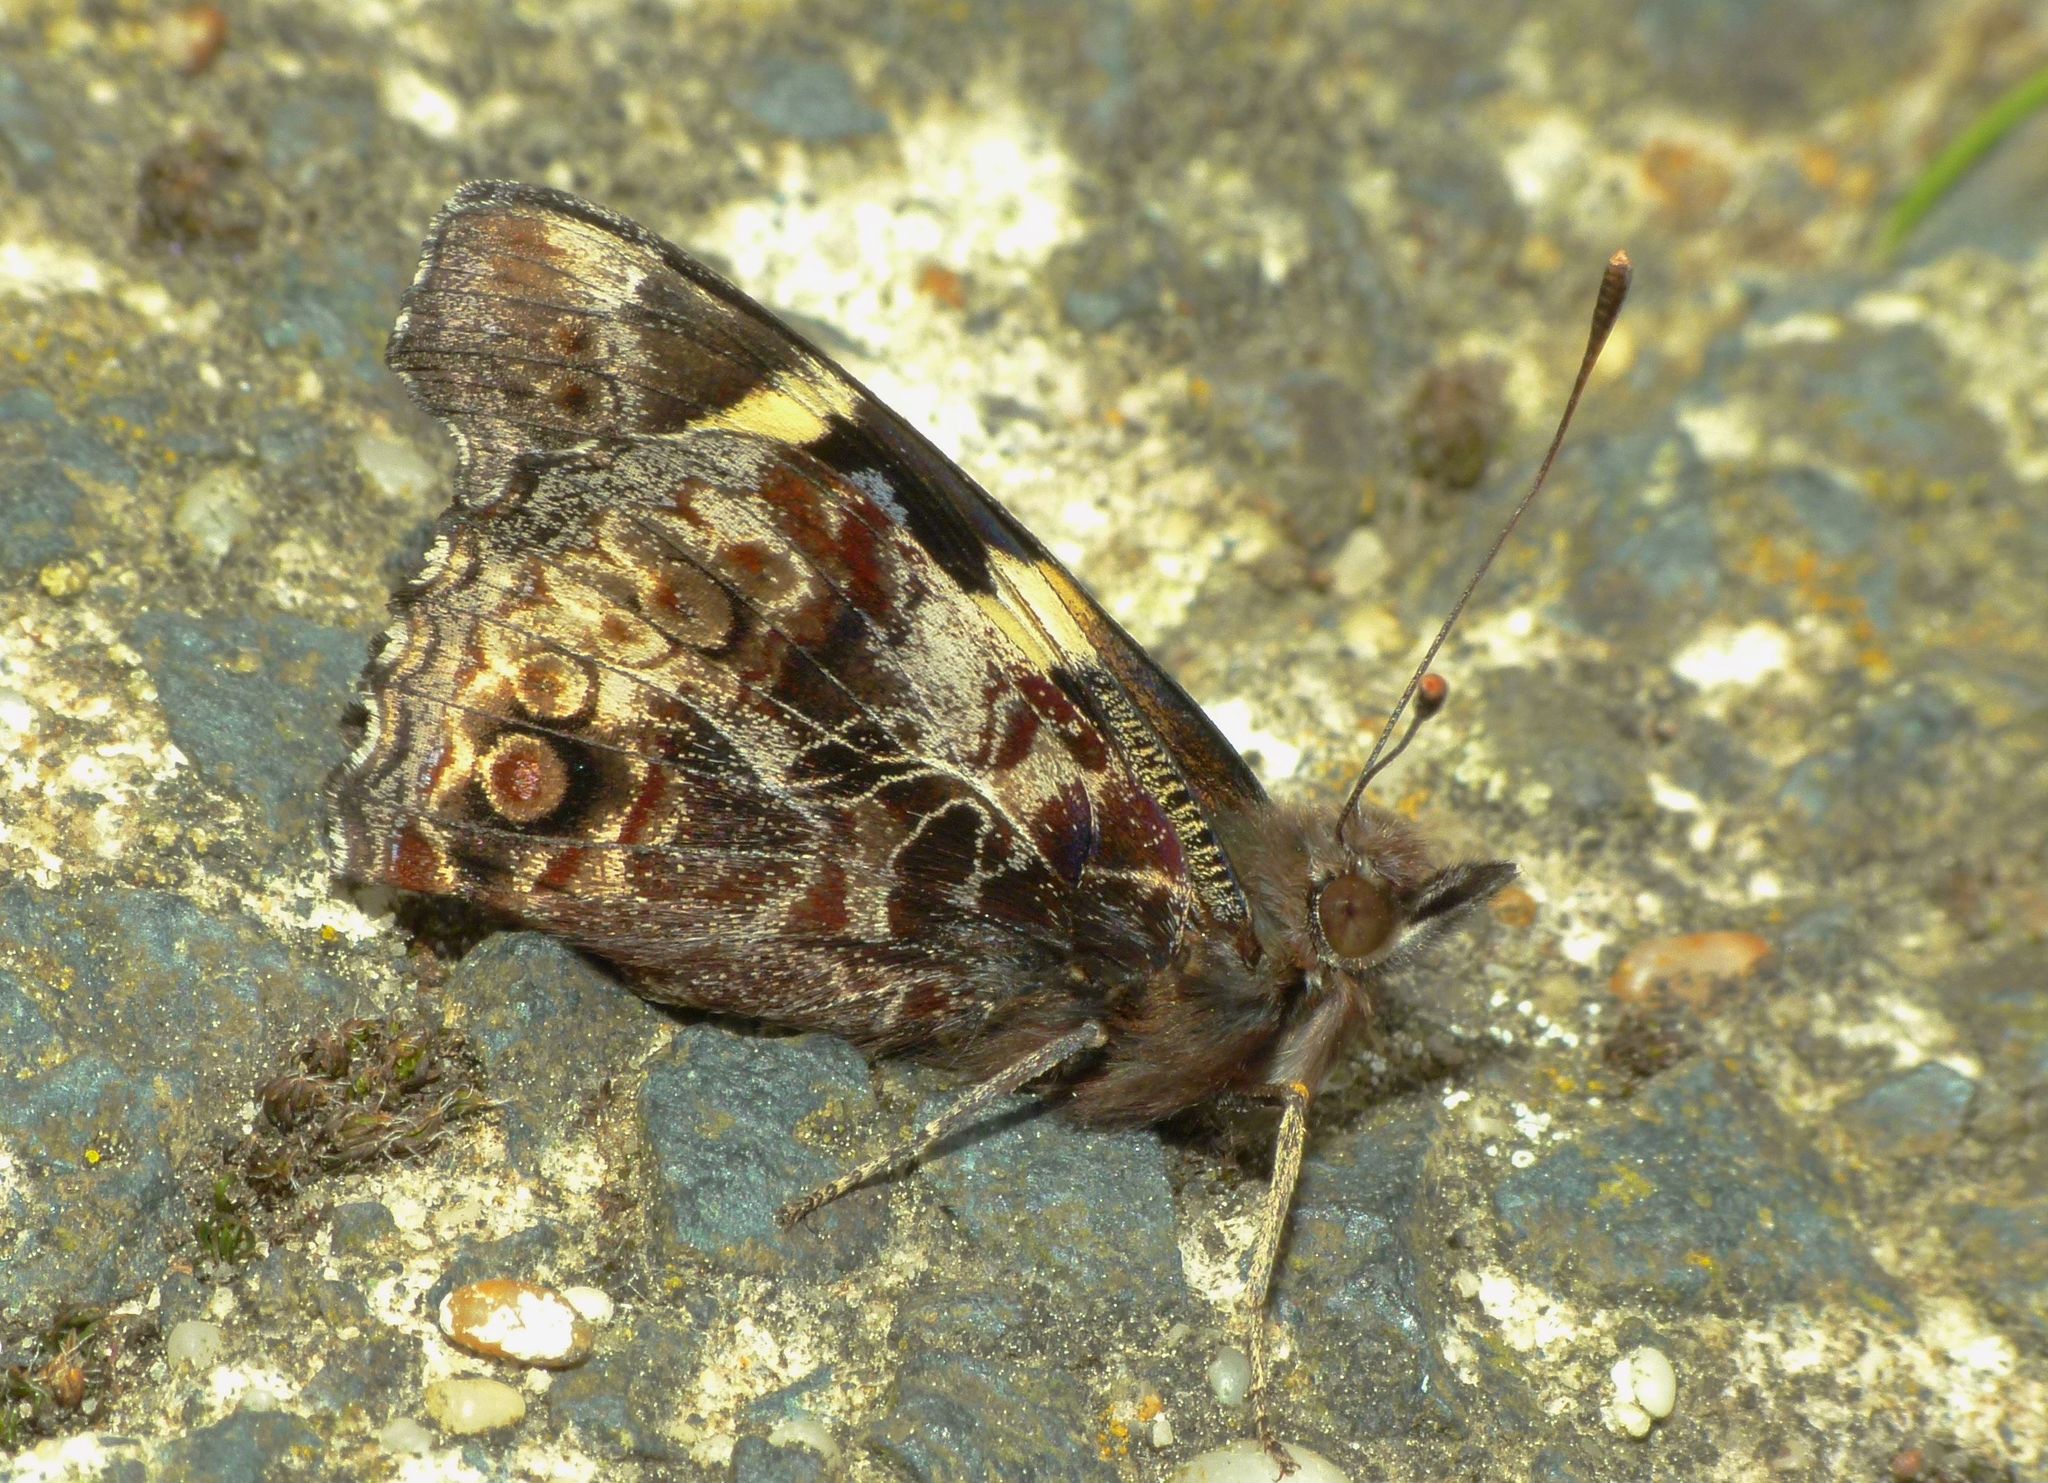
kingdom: Animalia
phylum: Arthropoda
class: Insecta
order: Lepidoptera
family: Nymphalidae
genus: Vanessa
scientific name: Vanessa itea
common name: Yellow admiral
